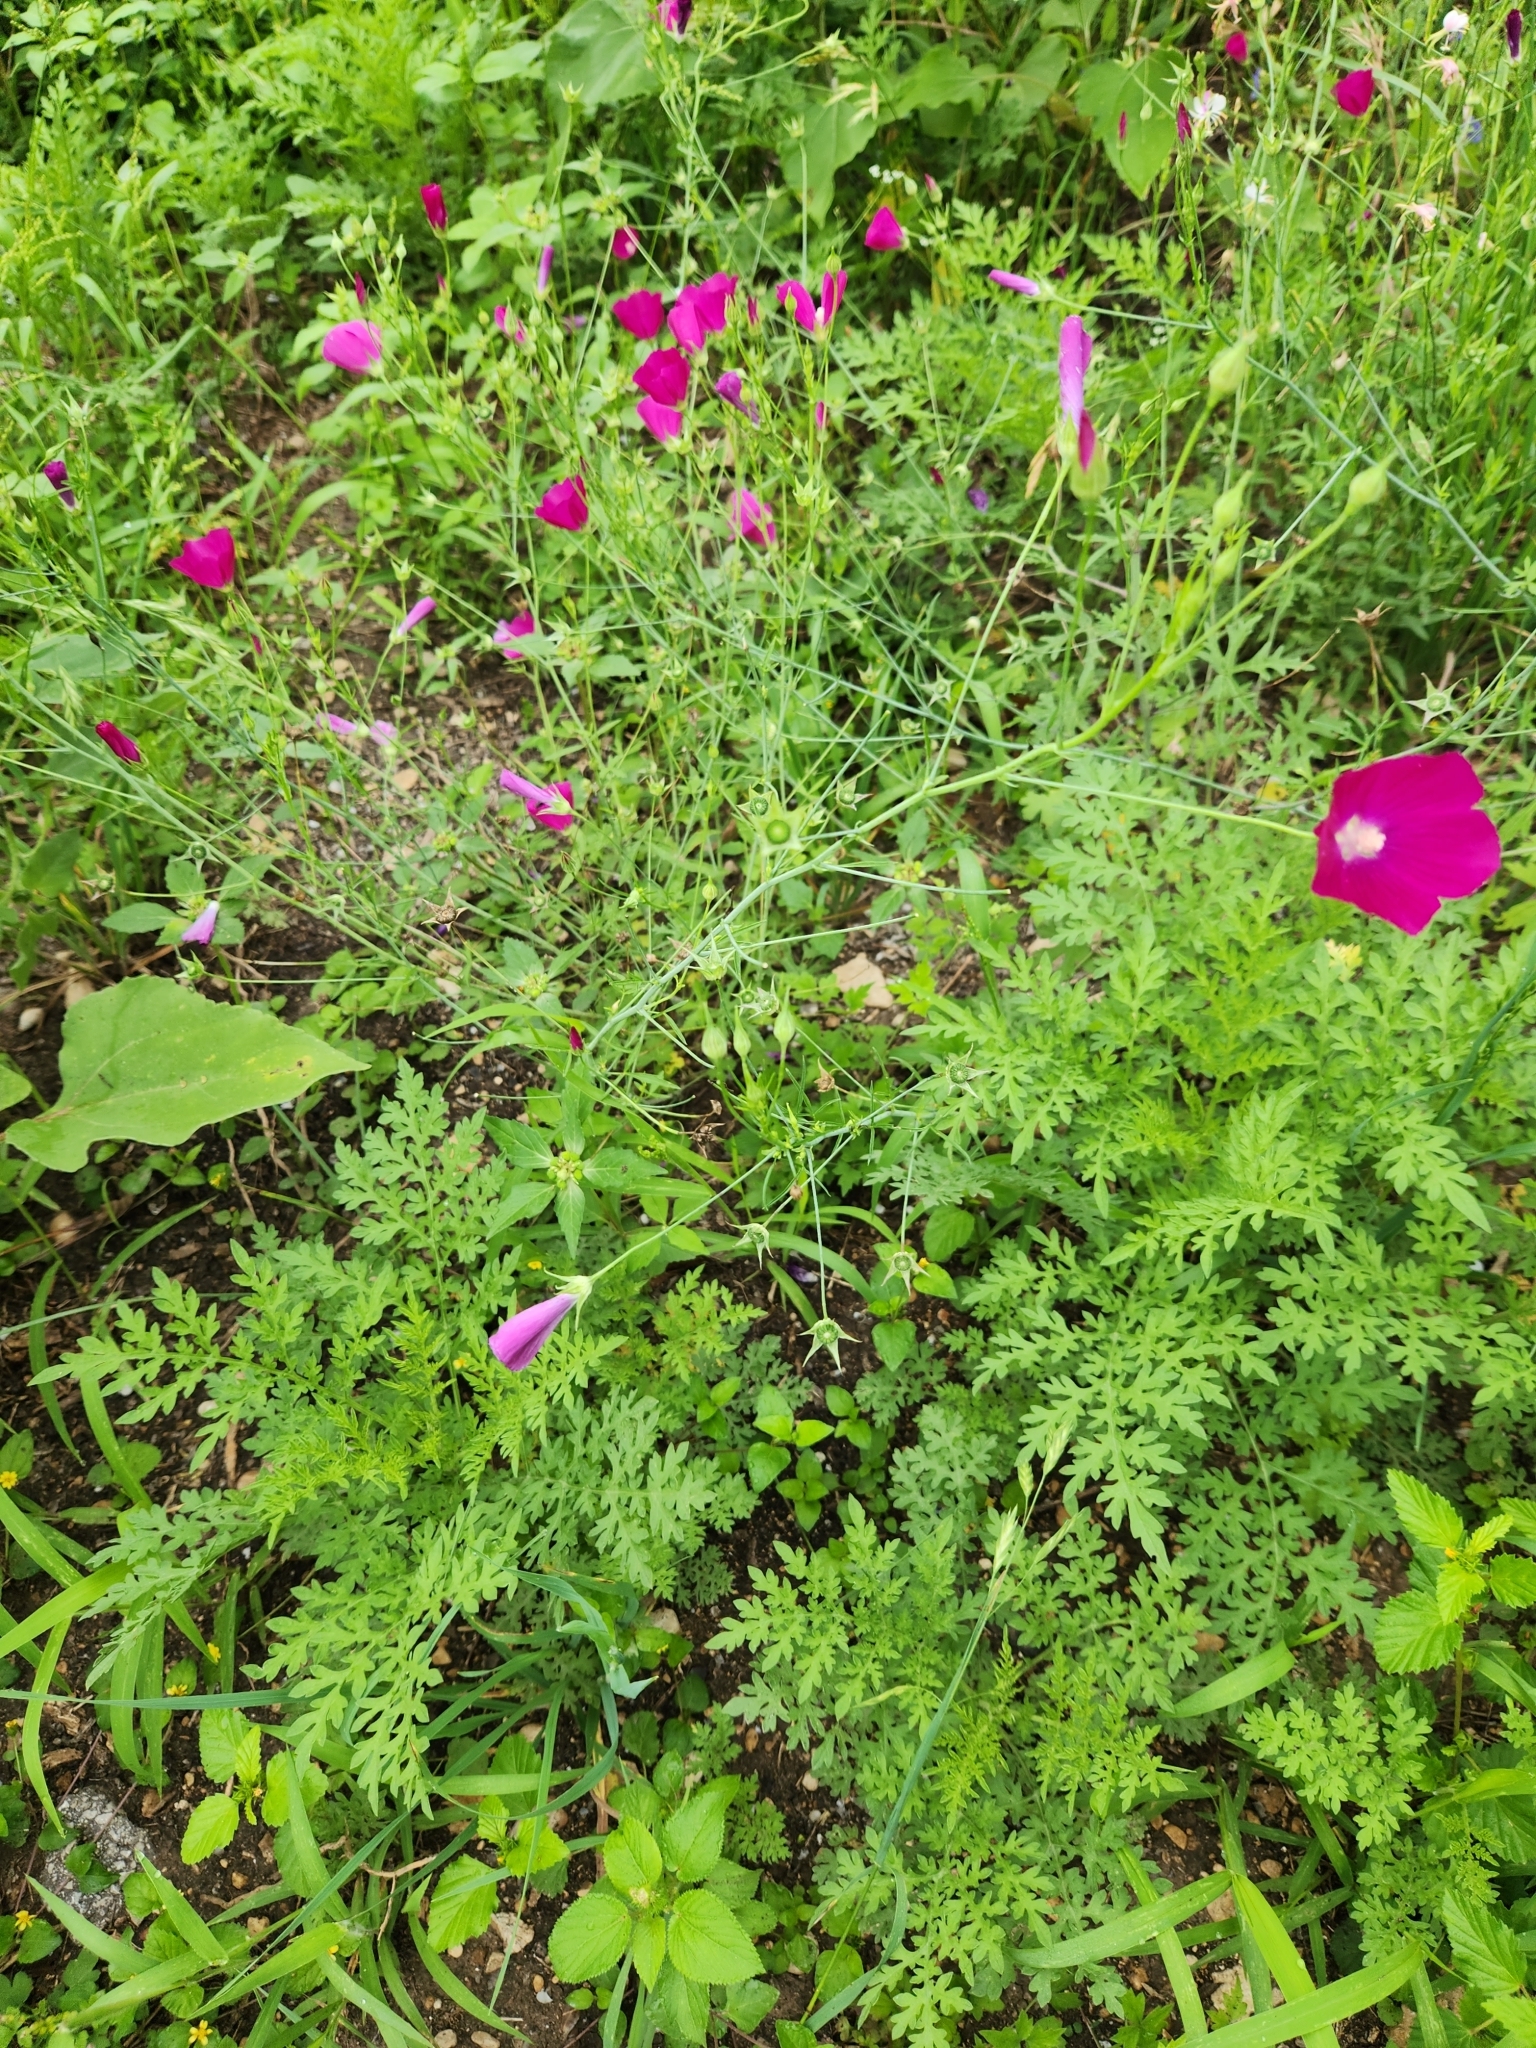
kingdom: Plantae
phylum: Tracheophyta
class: Magnoliopsida
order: Malvales
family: Malvaceae
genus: Callirhoe
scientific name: Callirhoe leiocarpa
